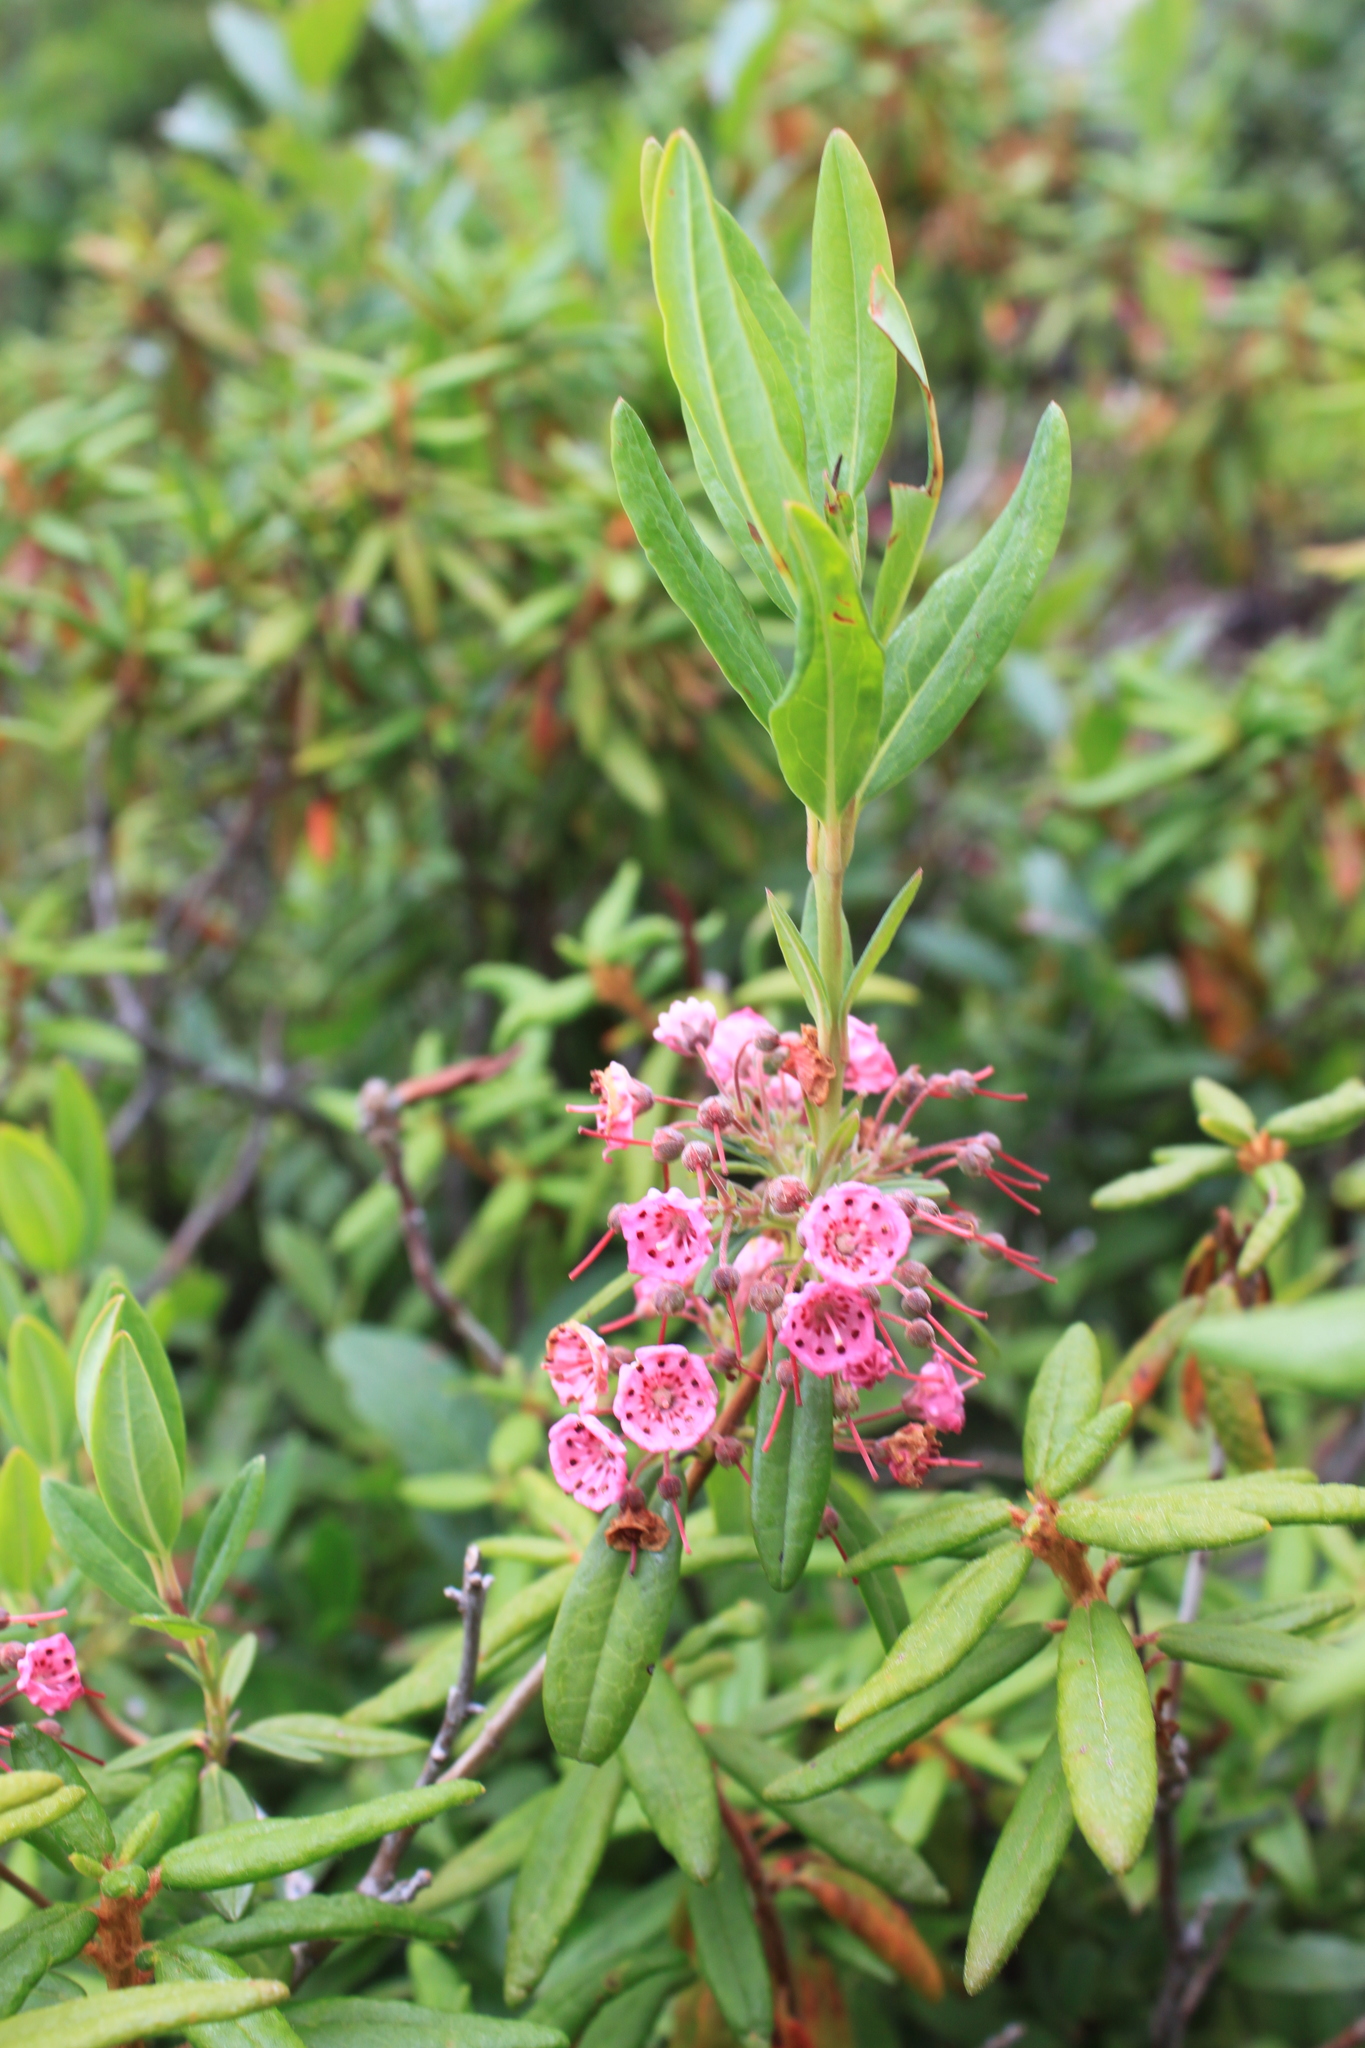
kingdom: Plantae
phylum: Tracheophyta
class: Magnoliopsida
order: Ericales
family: Ericaceae
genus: Kalmia
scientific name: Kalmia angustifolia
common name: Sheep-laurel
